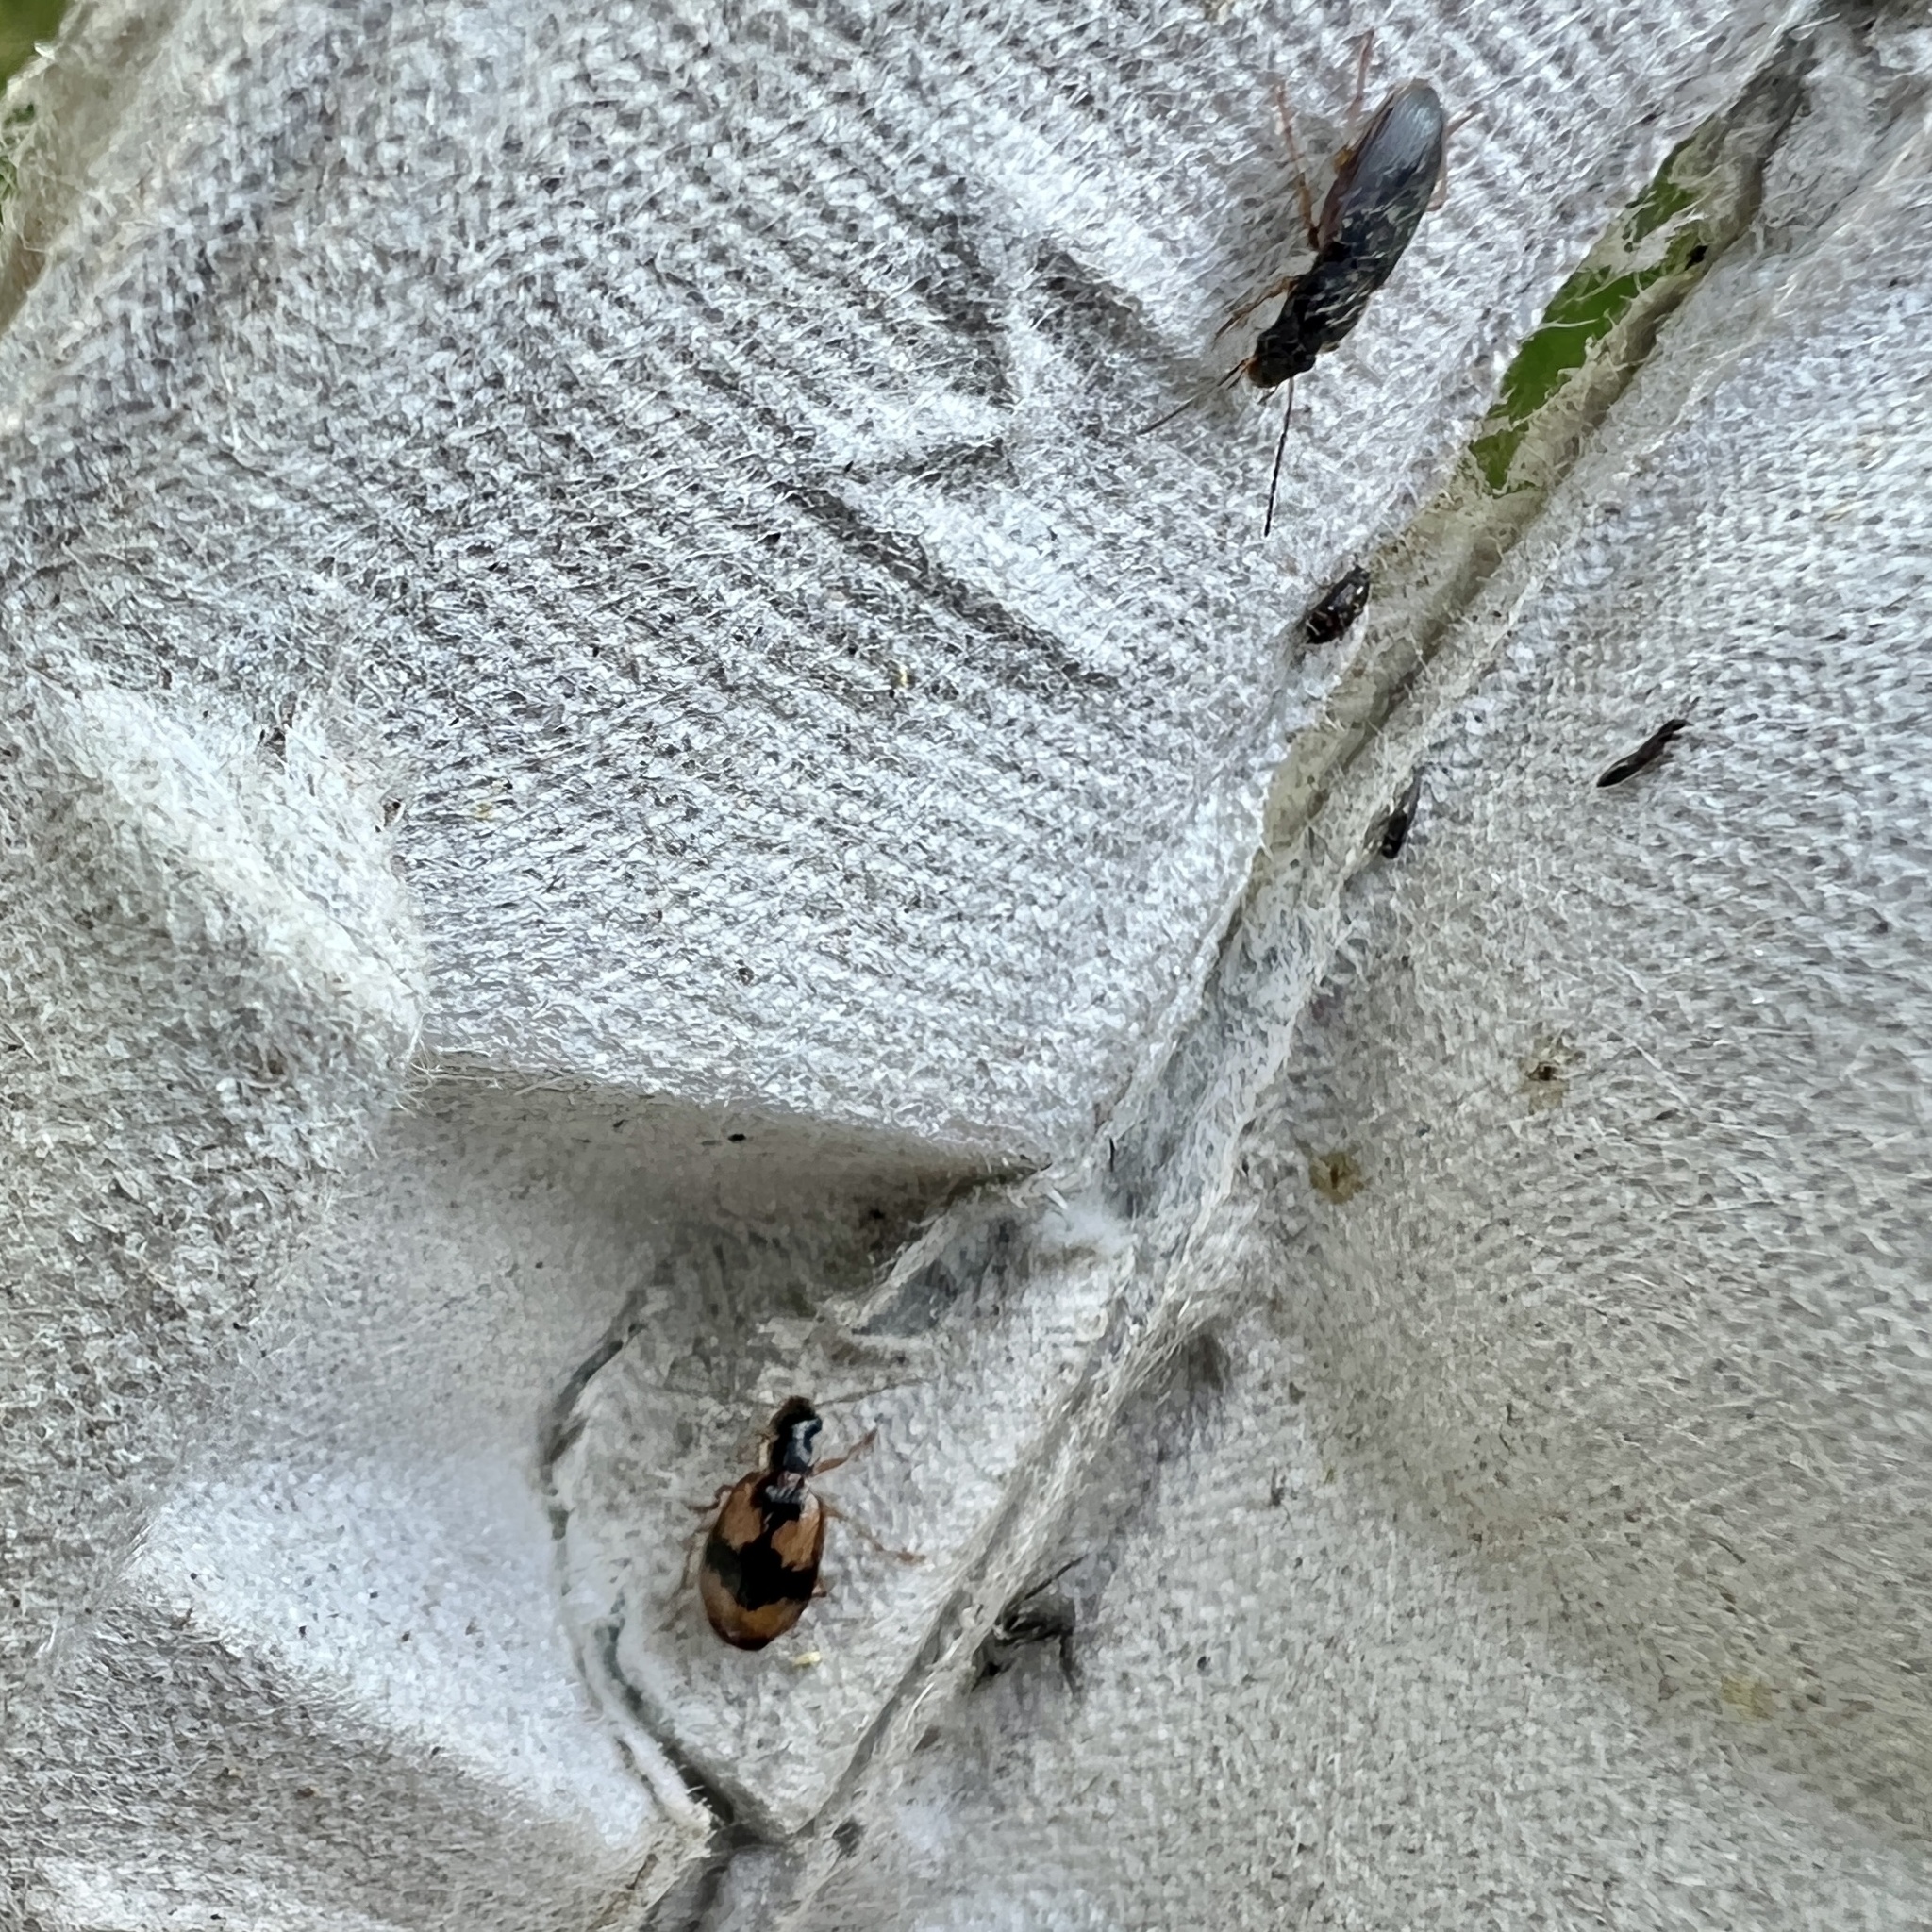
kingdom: Animalia
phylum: Arthropoda
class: Insecta
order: Coleoptera
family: Carabidae
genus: Lebia
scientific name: Lebia fuscata
